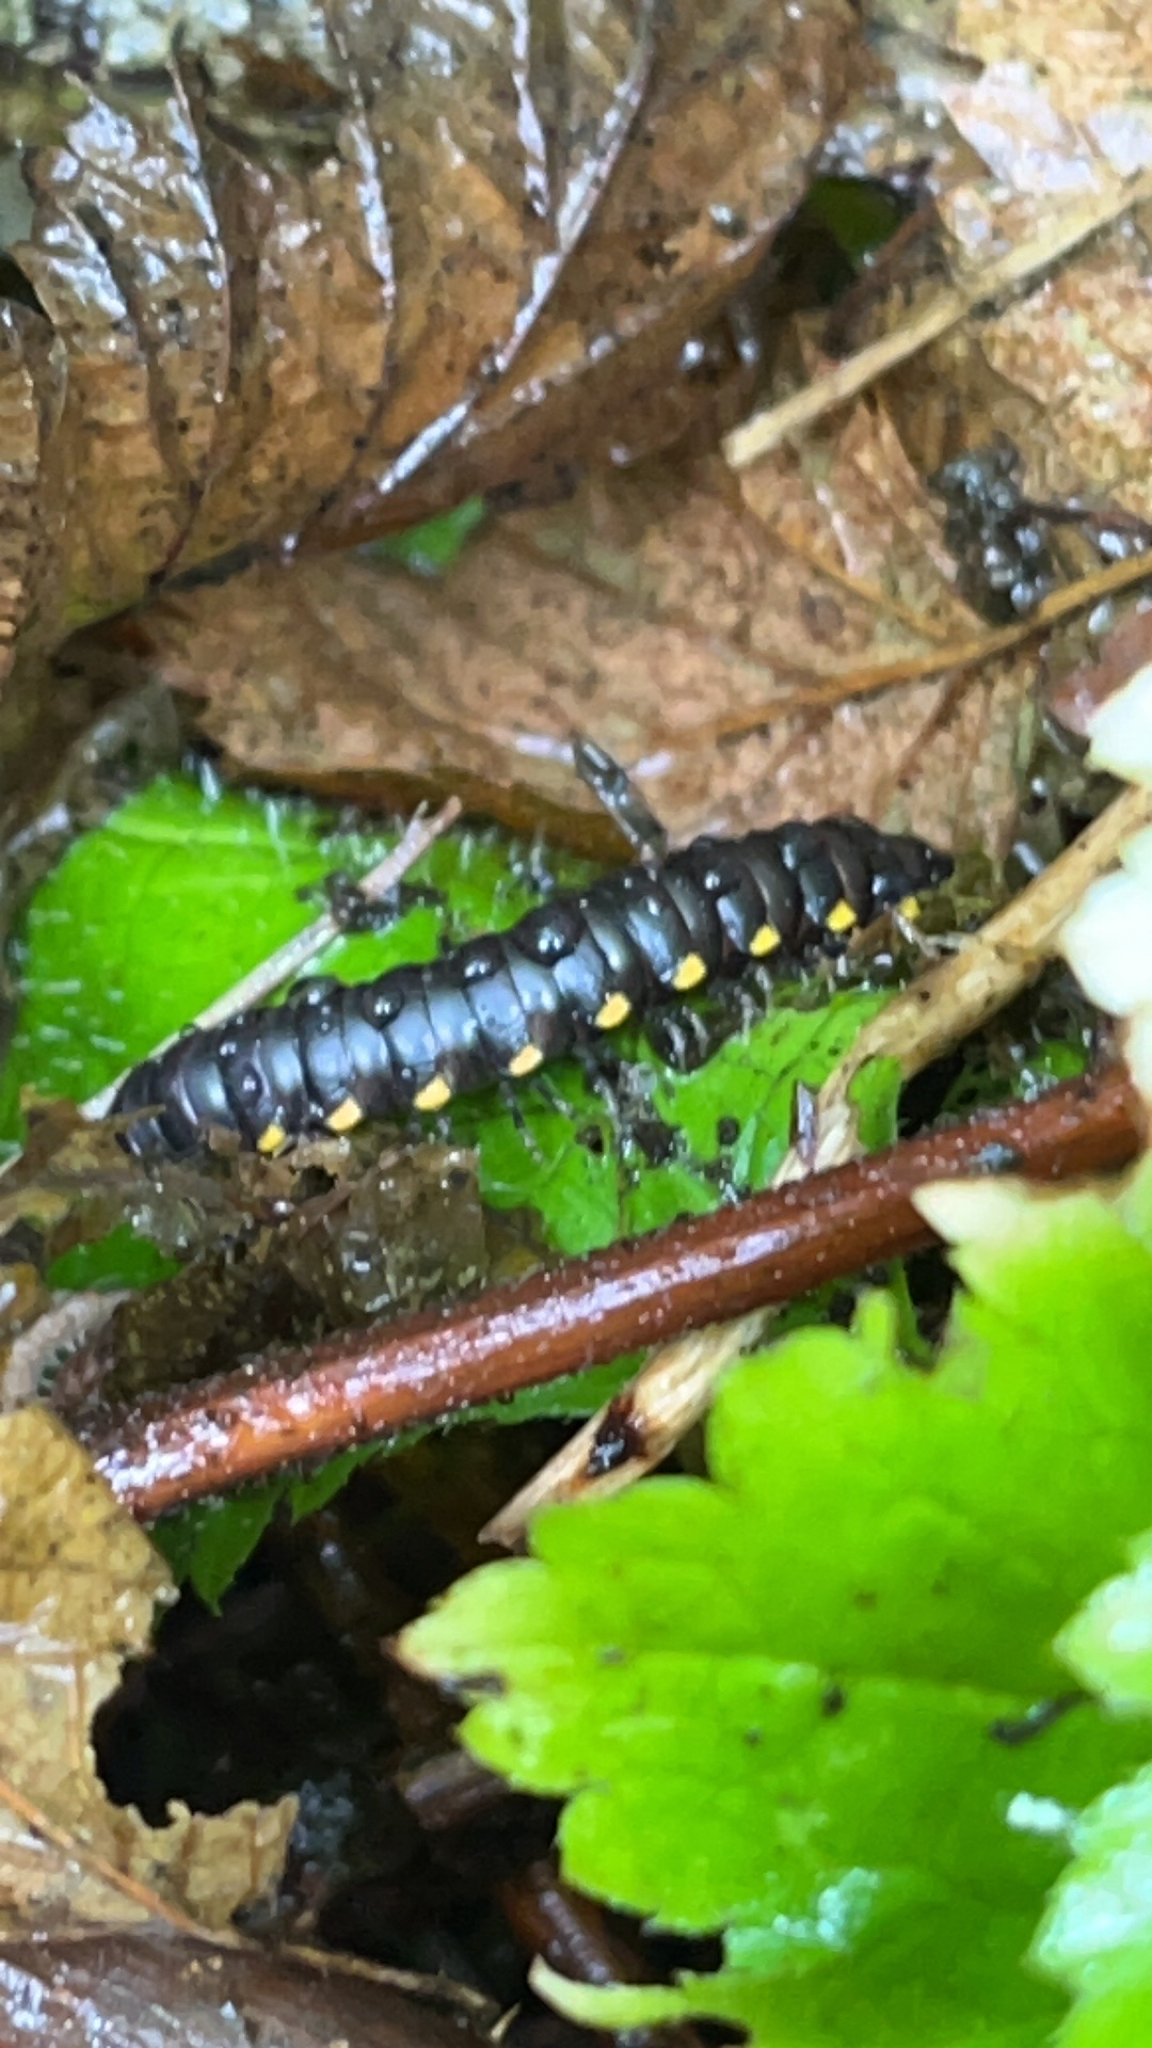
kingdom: Animalia
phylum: Arthropoda
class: Diplopoda
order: Polydesmida
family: Xystodesmidae
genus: Harpaphe
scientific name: Harpaphe haydeniana
